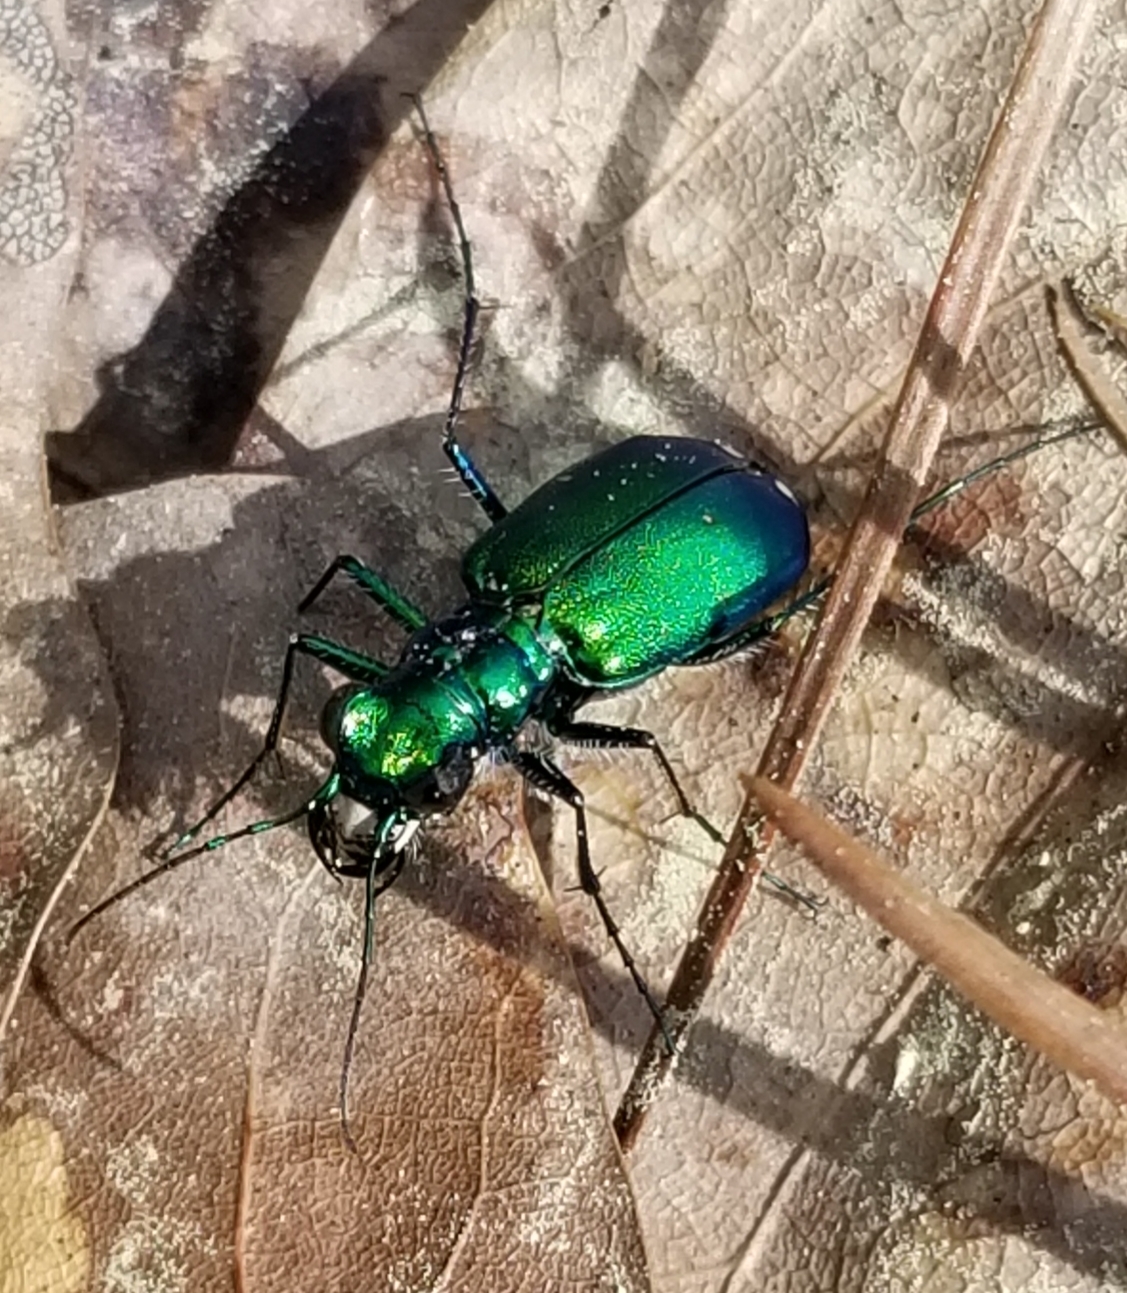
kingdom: Animalia
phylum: Arthropoda
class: Insecta
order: Coleoptera
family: Carabidae
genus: Cicindela
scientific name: Cicindela sexguttata
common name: Six-spotted tiger beetle
